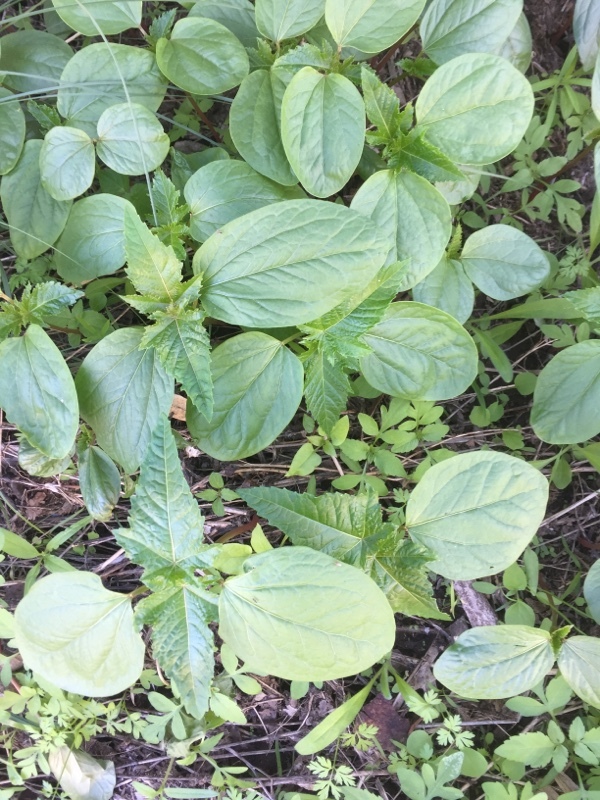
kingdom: Plantae
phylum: Tracheophyta
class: Magnoliopsida
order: Malpighiales
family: Euphorbiaceae
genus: Ricinus
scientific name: Ricinus communis
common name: Castor-oil-plant
